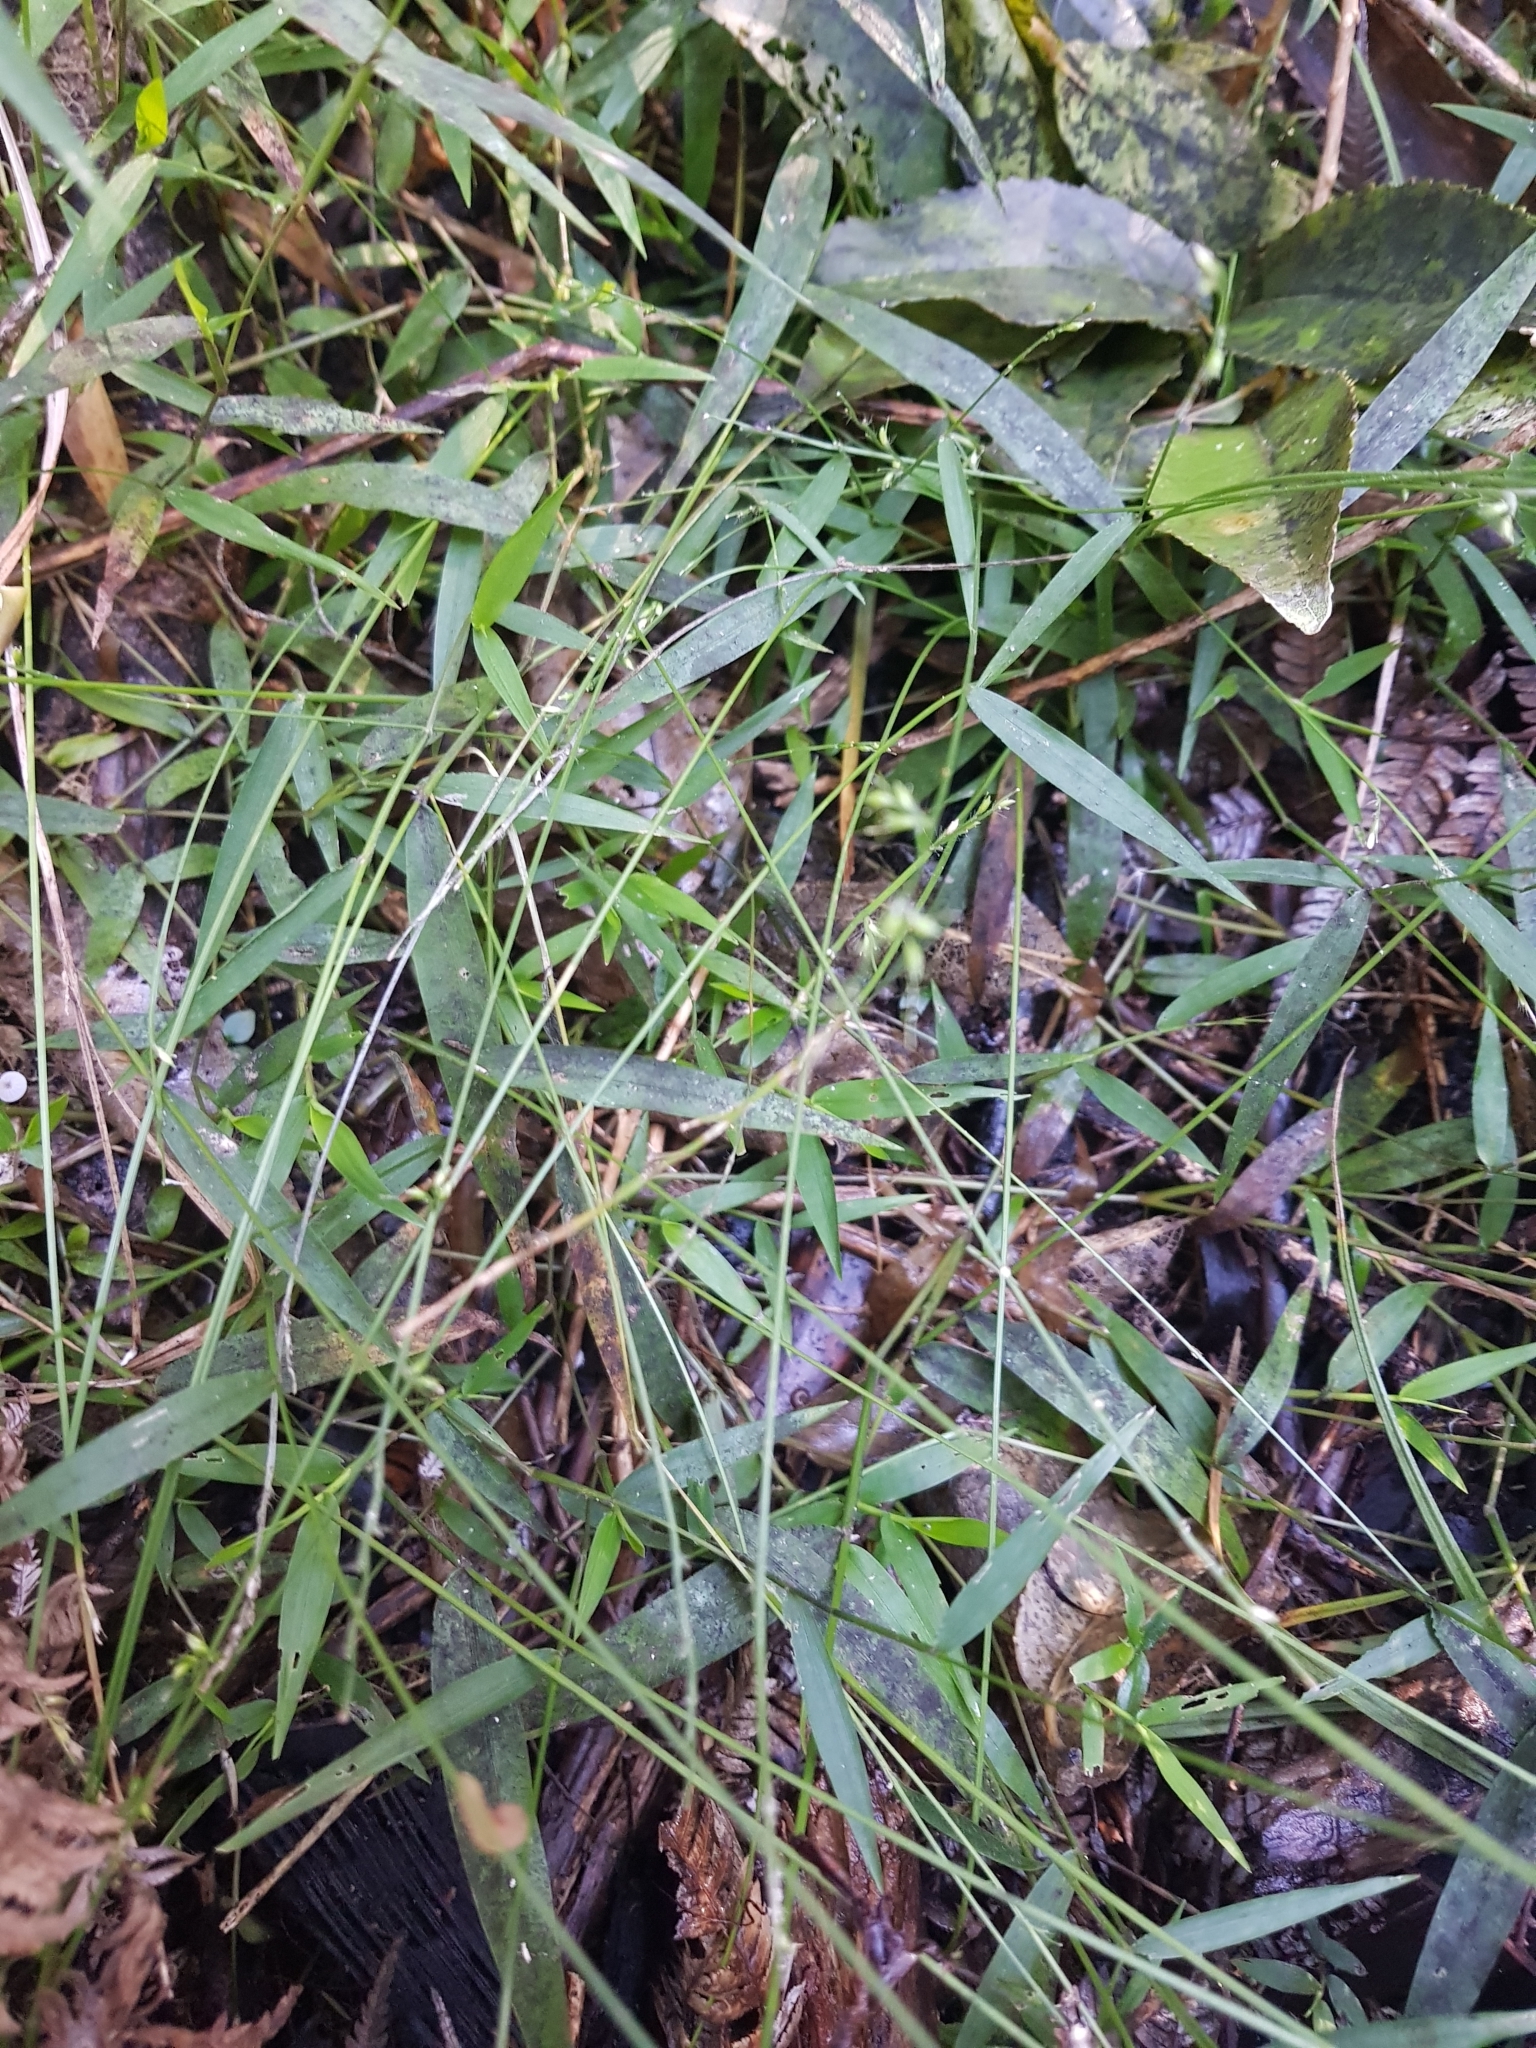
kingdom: Plantae
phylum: Tracheophyta
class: Liliopsida
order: Poales
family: Poaceae
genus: Oplismenus
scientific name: Oplismenus hirtellus
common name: Basketgrass
